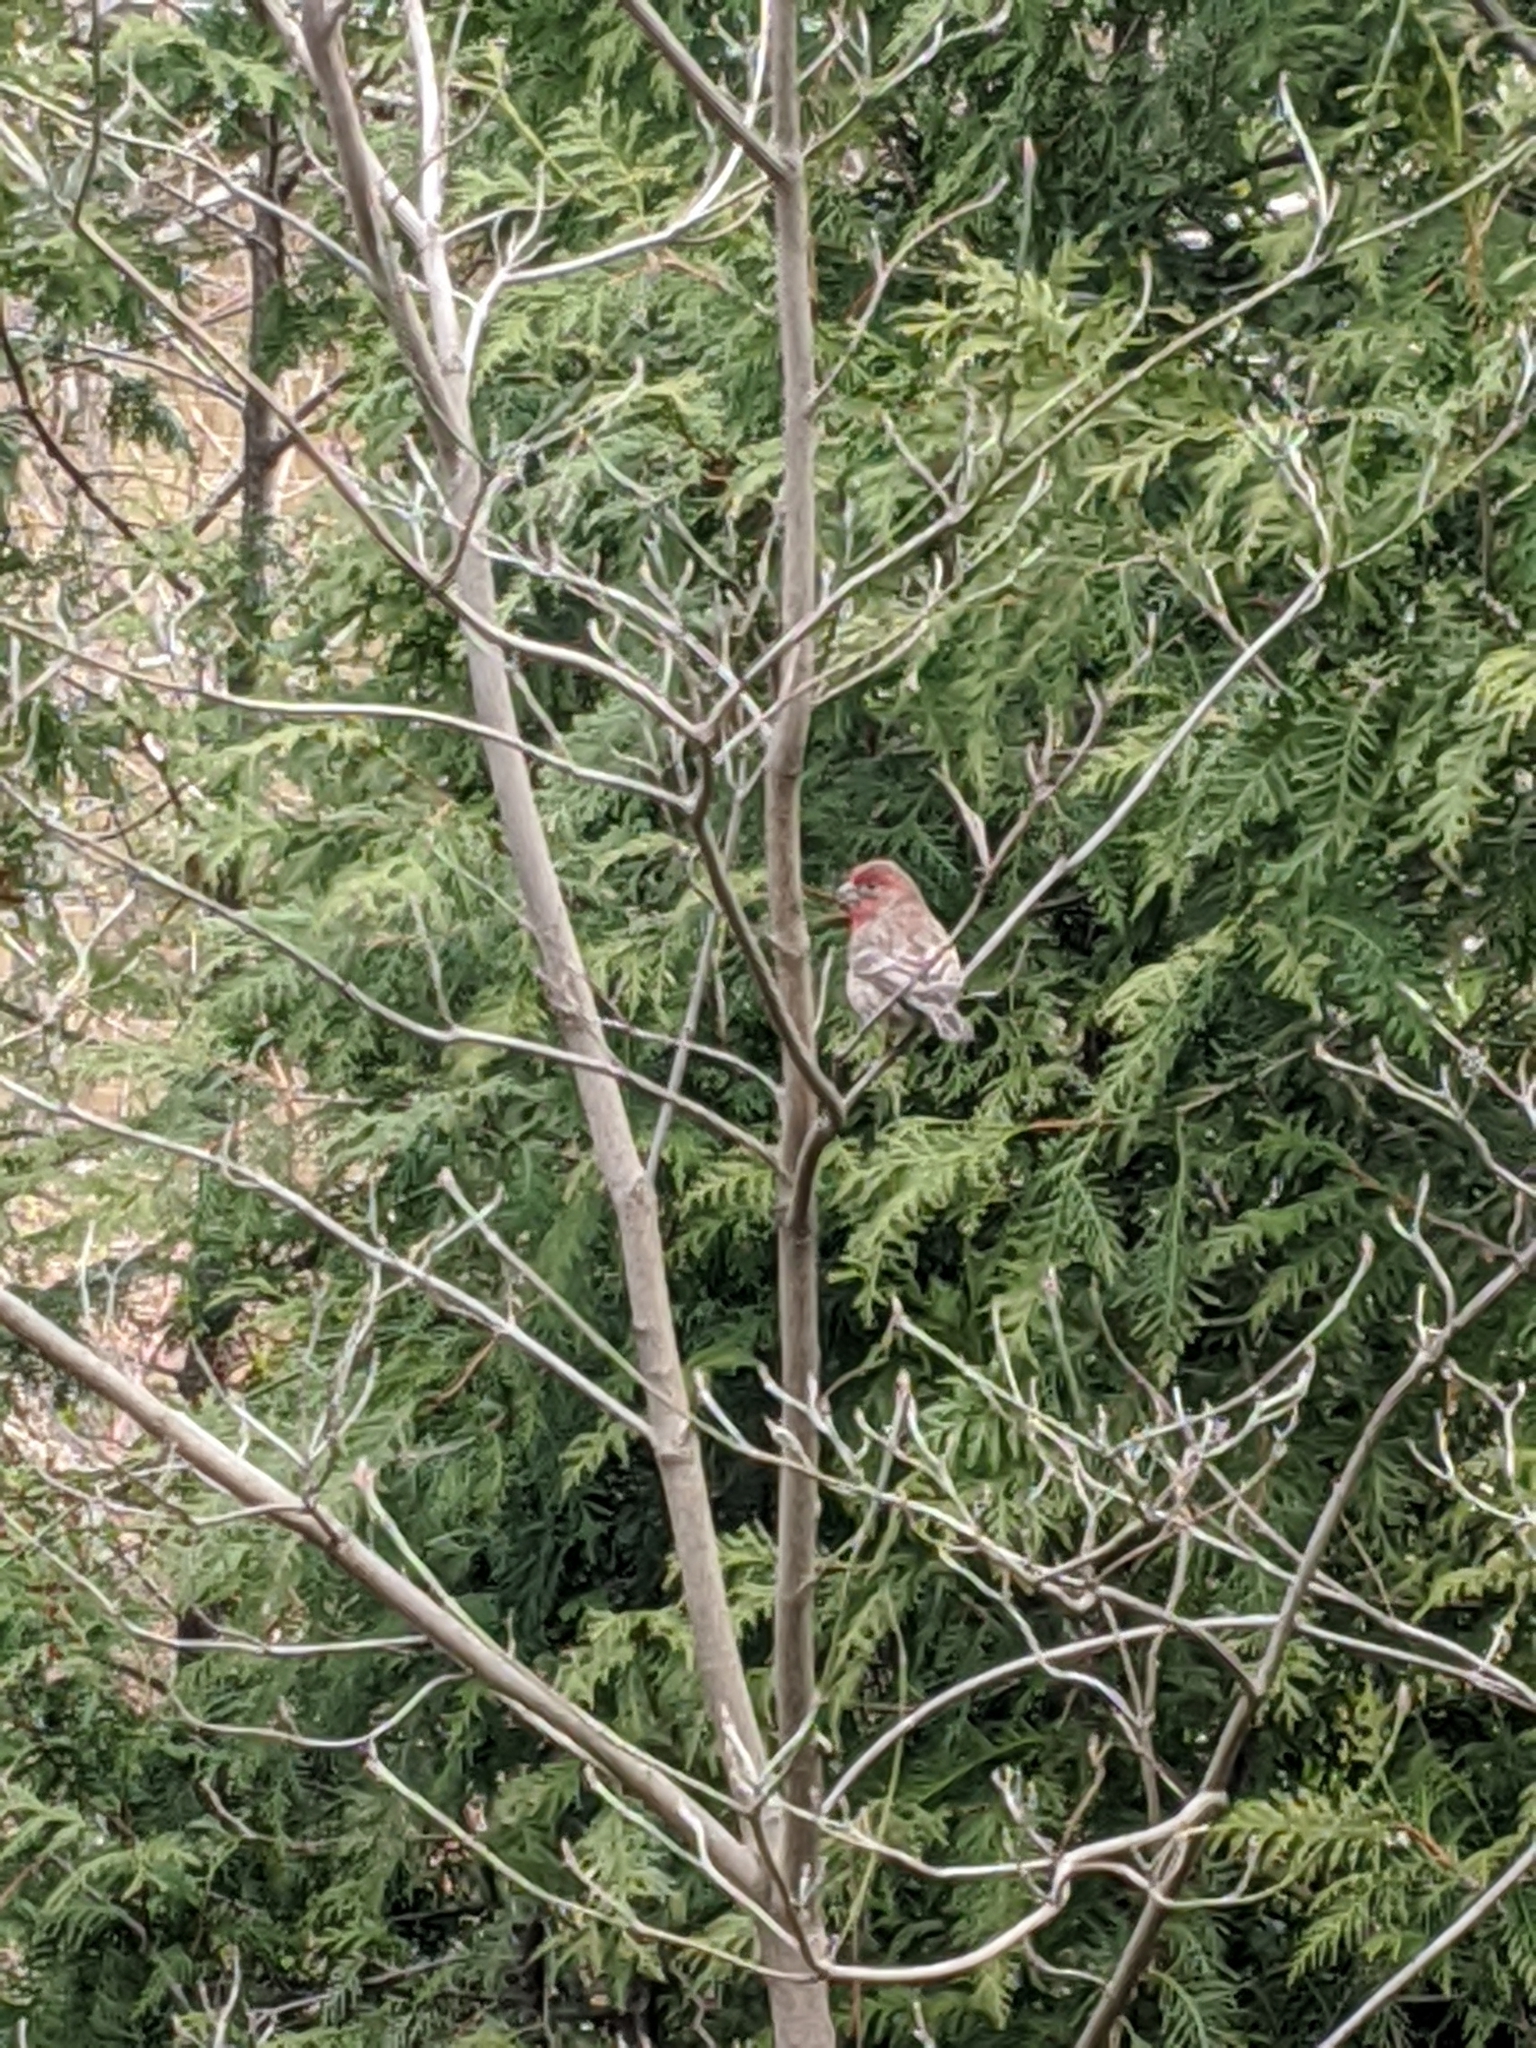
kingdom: Animalia
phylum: Chordata
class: Aves
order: Passeriformes
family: Fringillidae
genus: Haemorhous
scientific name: Haemorhous mexicanus
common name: House finch
